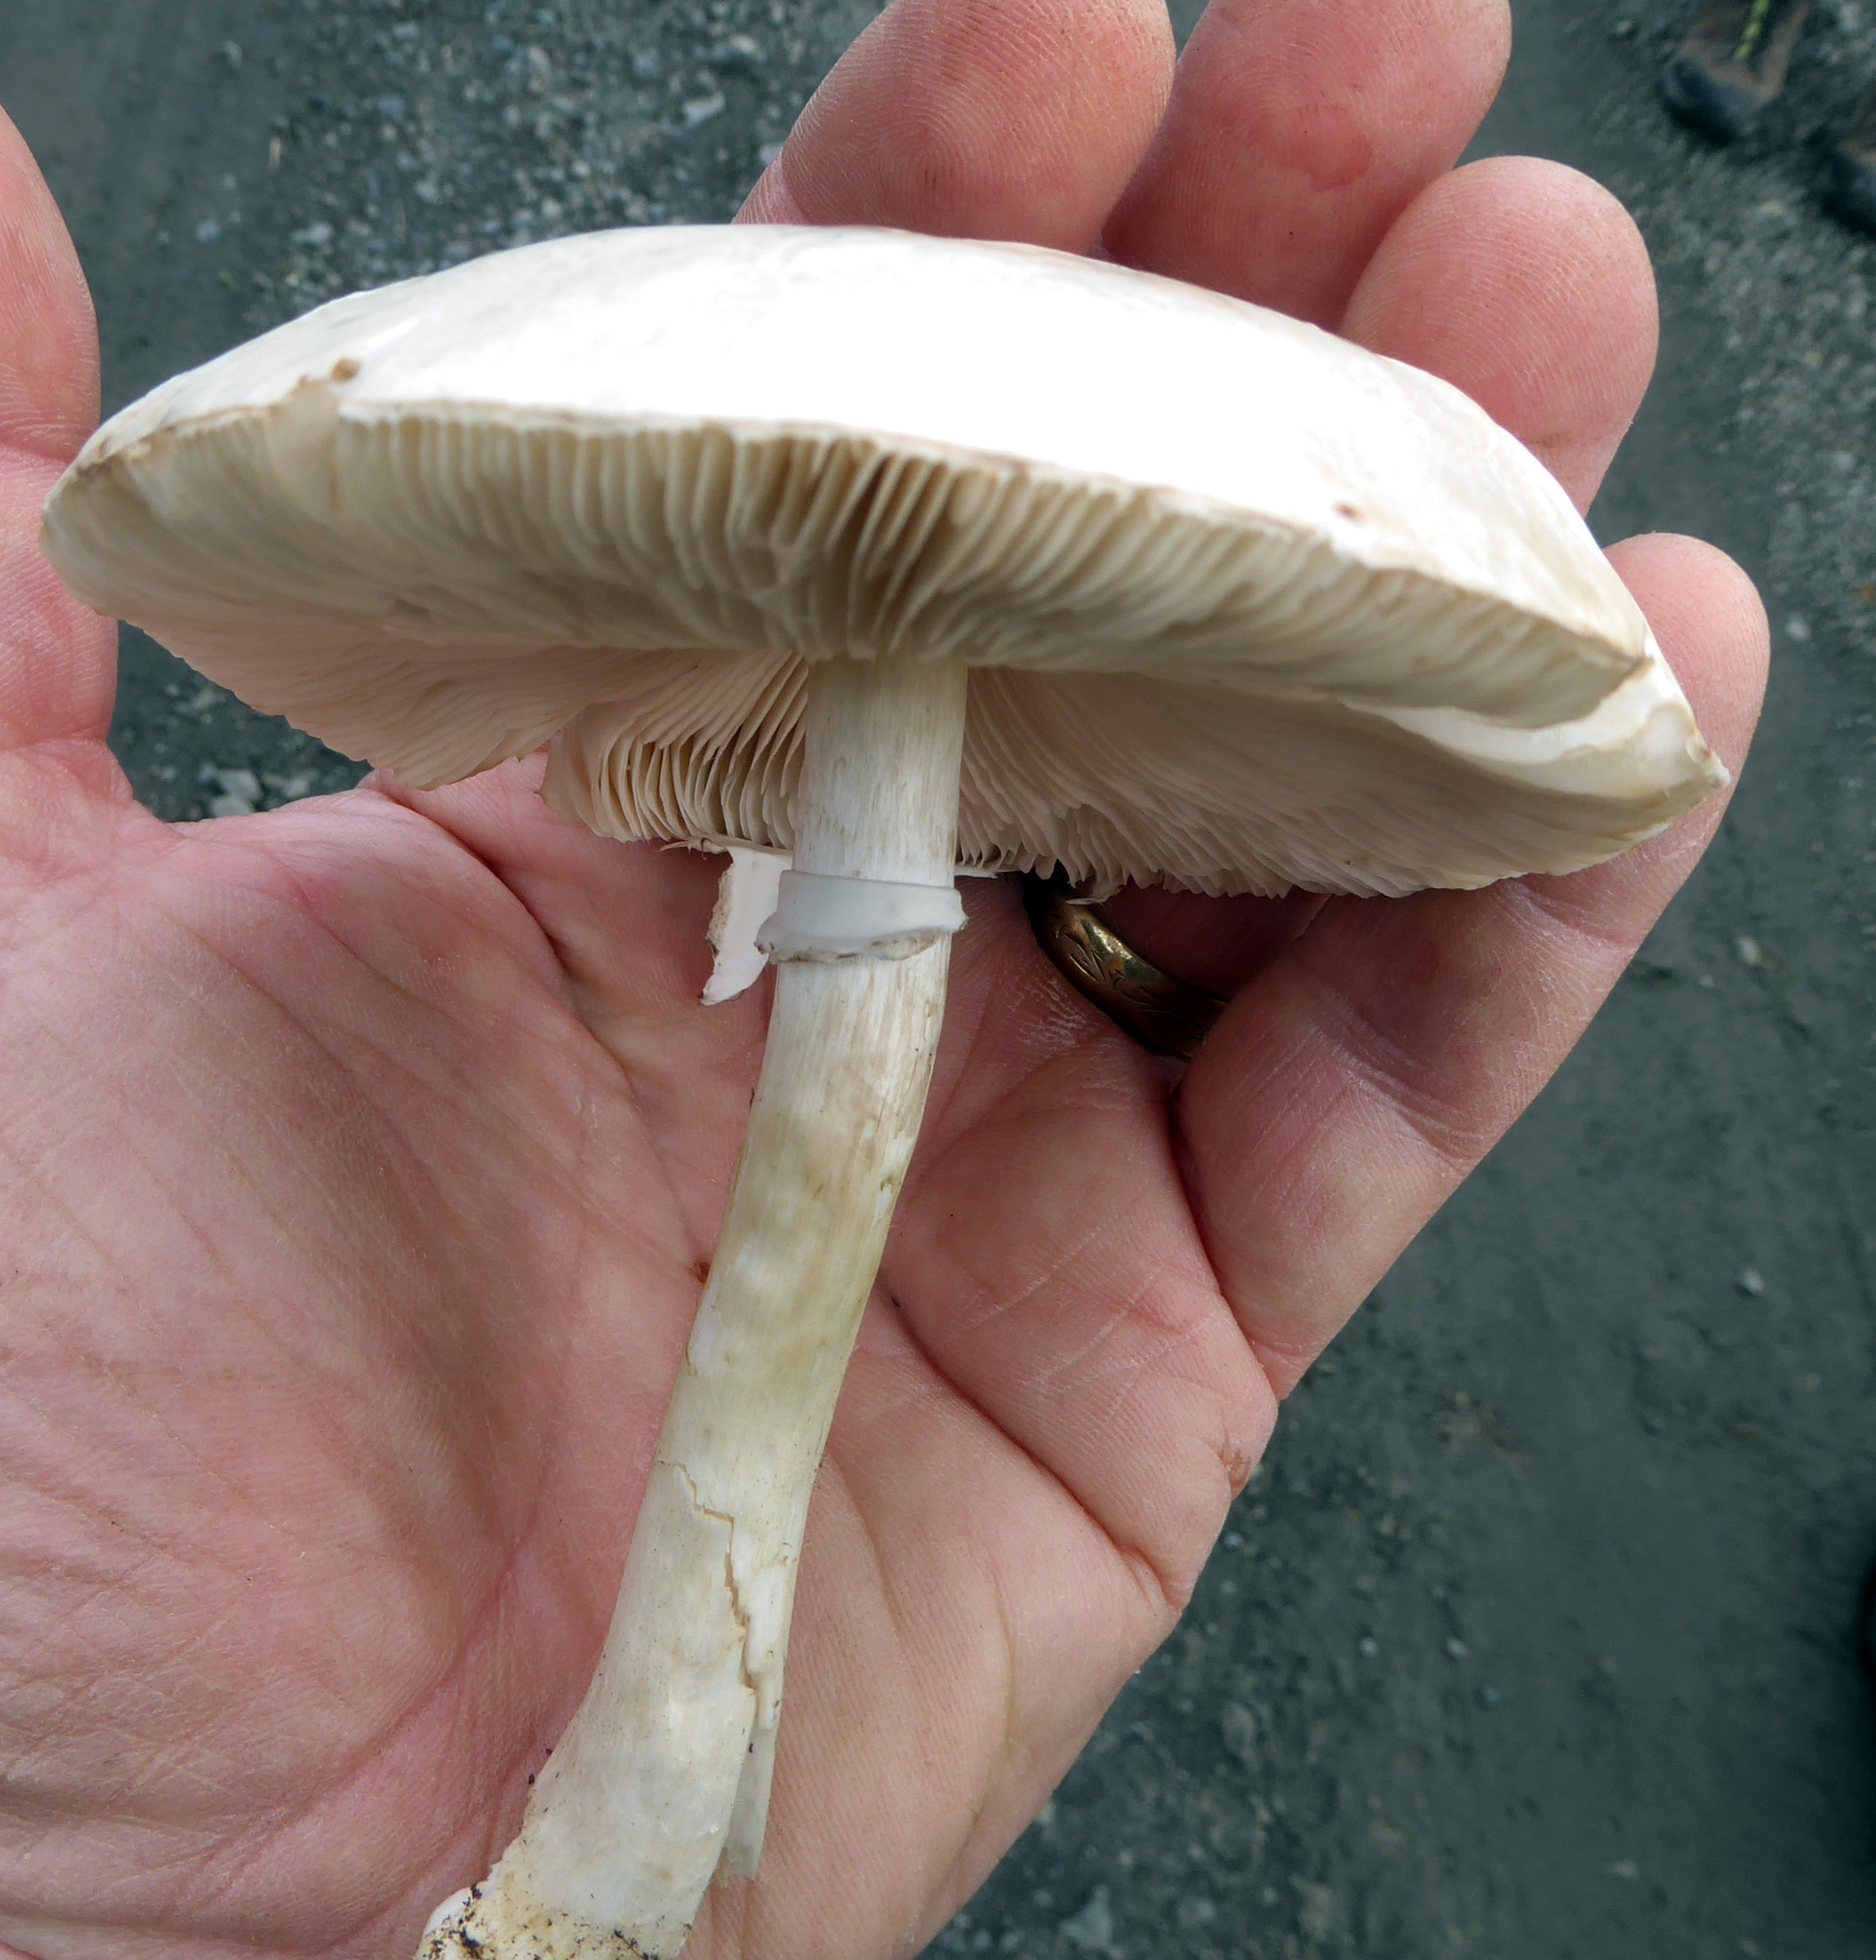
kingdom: Fungi
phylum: Basidiomycota
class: Agaricomycetes
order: Agaricales
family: Agaricaceae
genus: Leucoagaricus
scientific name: Leucoagaricus leucothites
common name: White dapperling
